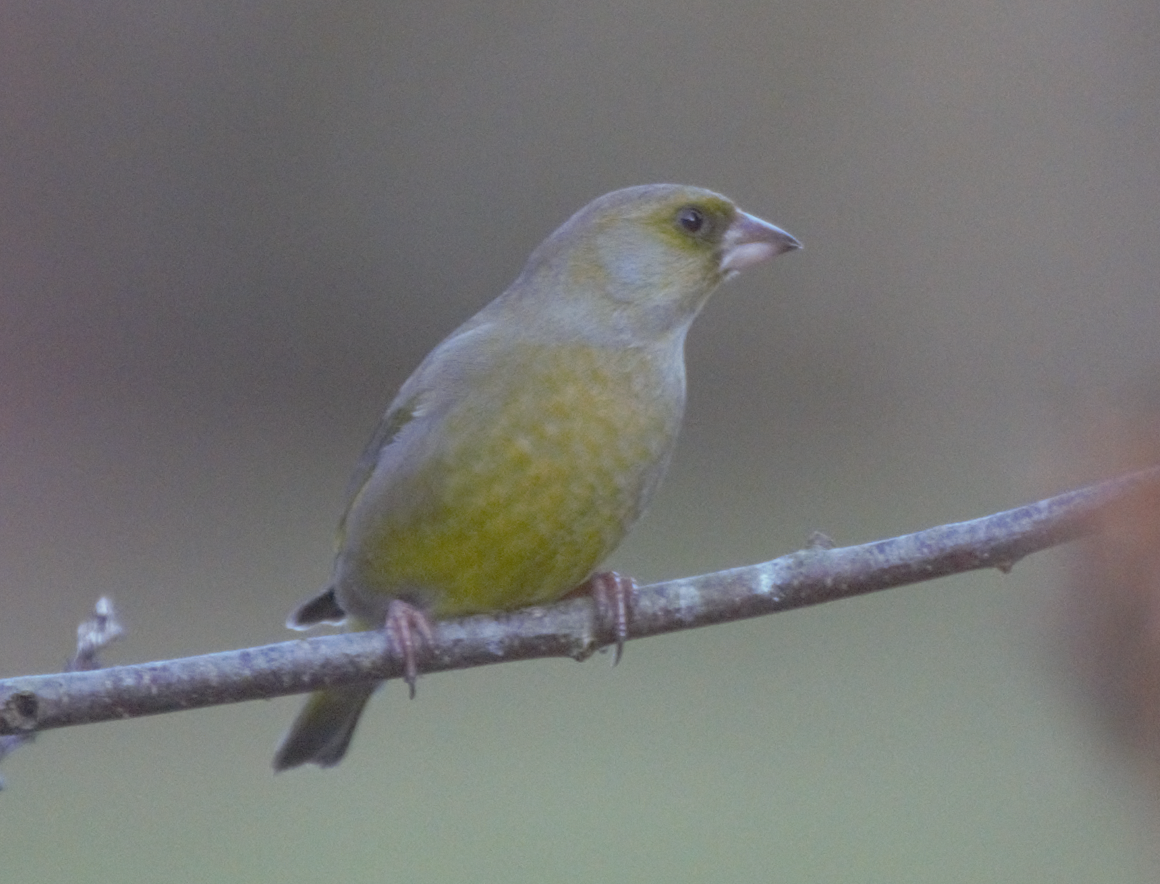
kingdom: Plantae
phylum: Tracheophyta
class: Liliopsida
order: Poales
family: Poaceae
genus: Chloris
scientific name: Chloris chloris
